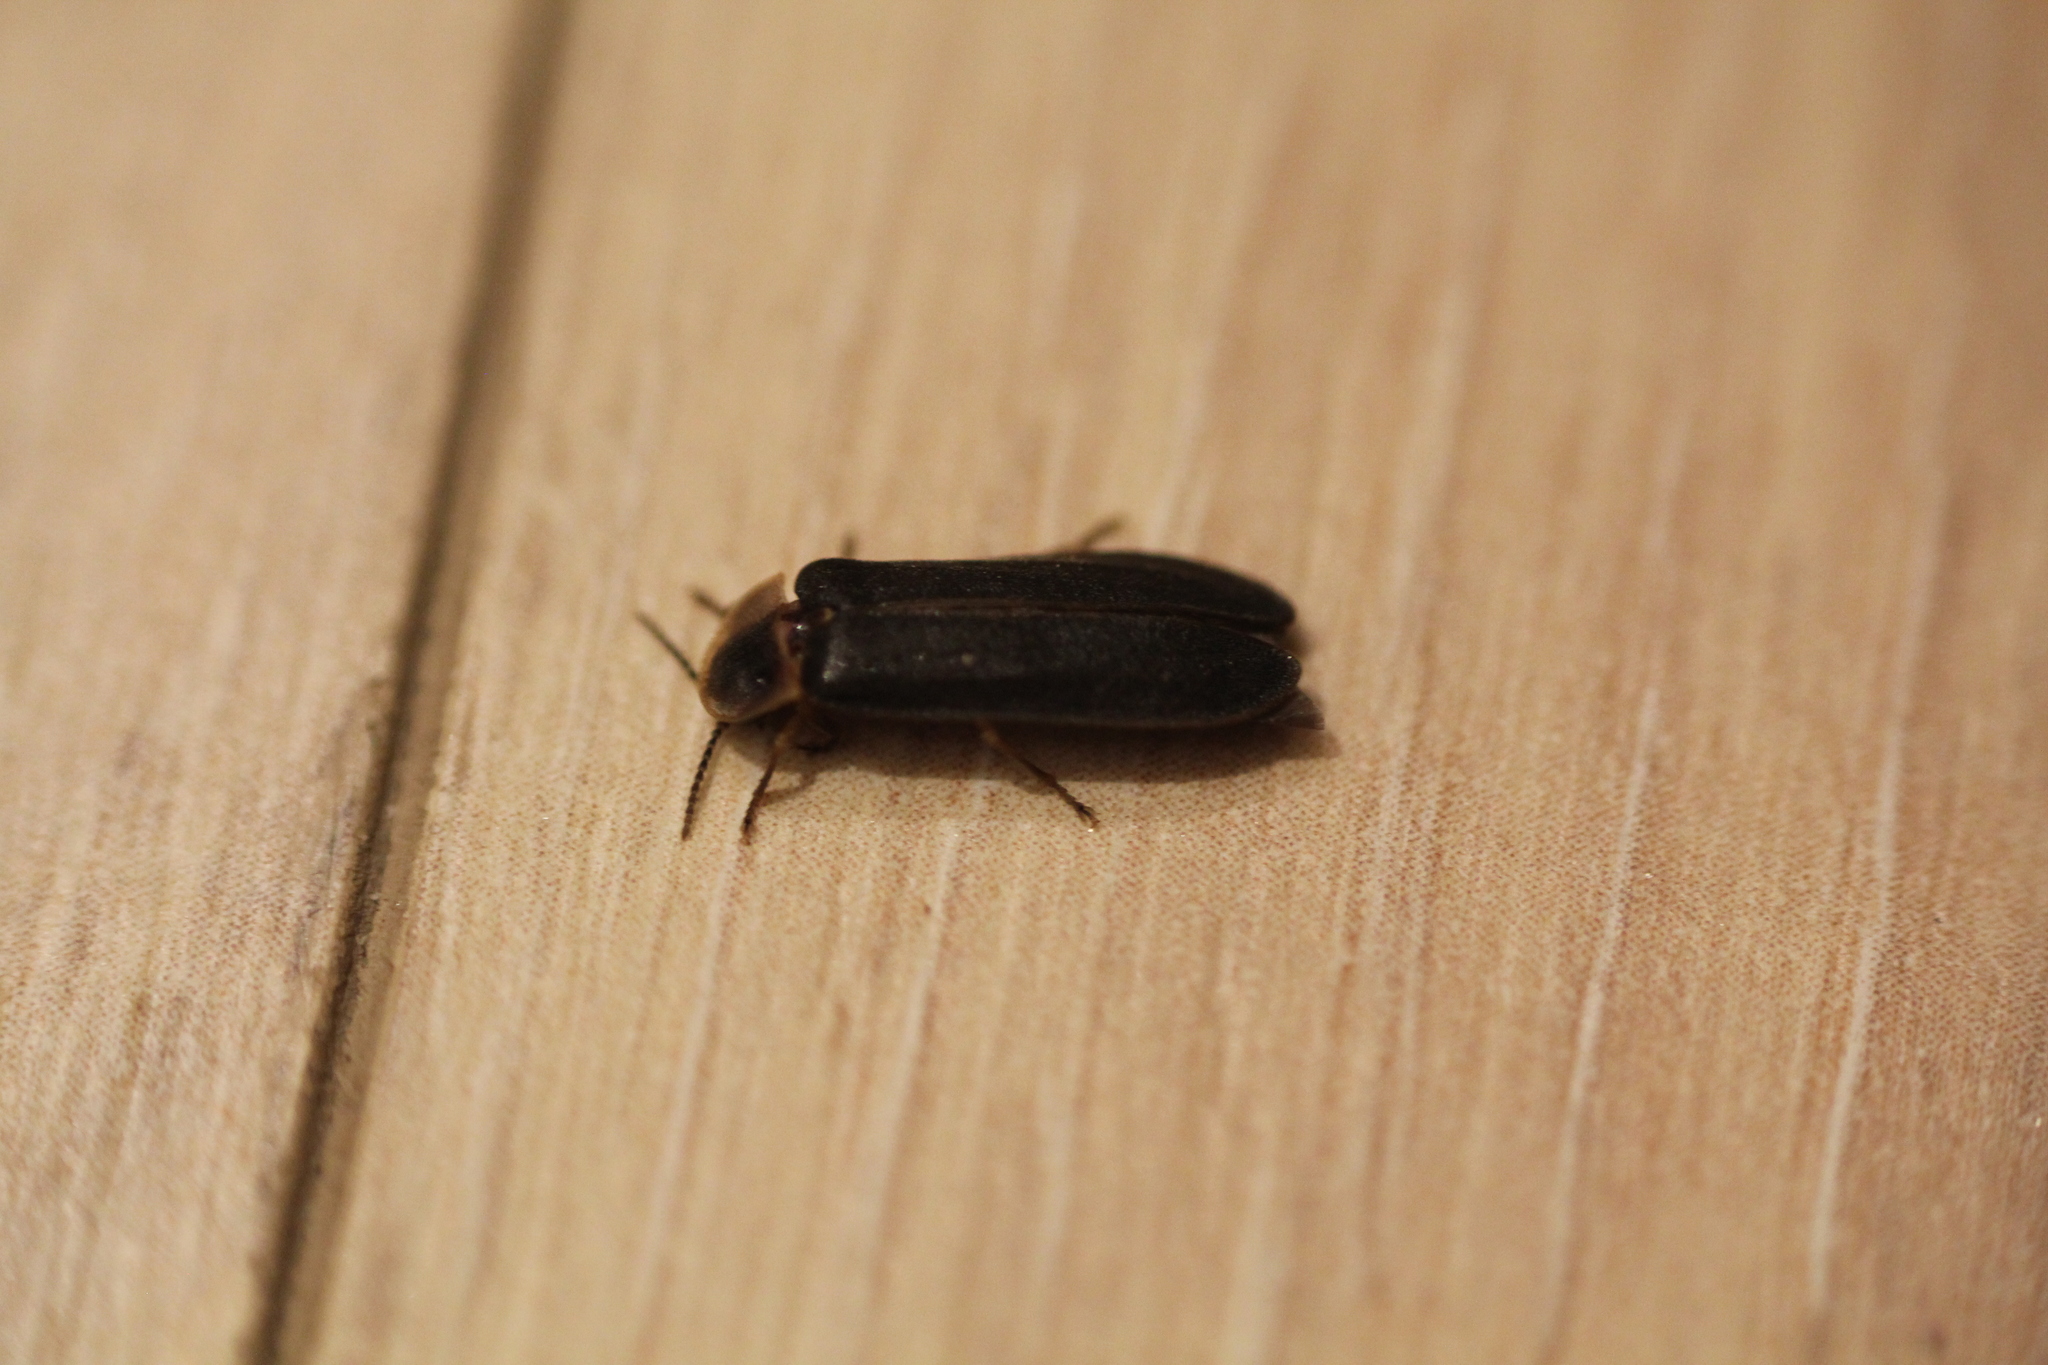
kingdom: Animalia
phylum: Arthropoda
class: Insecta
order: Coleoptera
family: Lampyridae
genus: Lampyris
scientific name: Lampyris noctiluca
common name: Glow-worm
